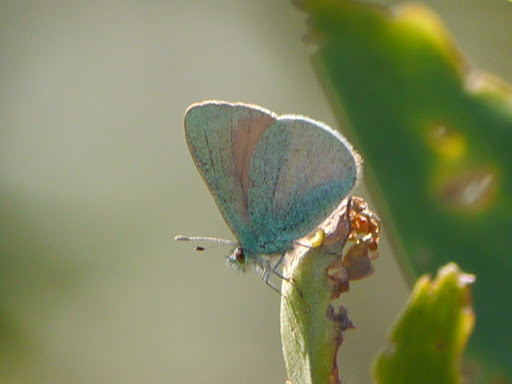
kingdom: Animalia
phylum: Arthropoda
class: Insecta
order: Lepidoptera
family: Lycaenidae
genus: Udara
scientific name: Udara blackburni
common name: Blackburn's blue
